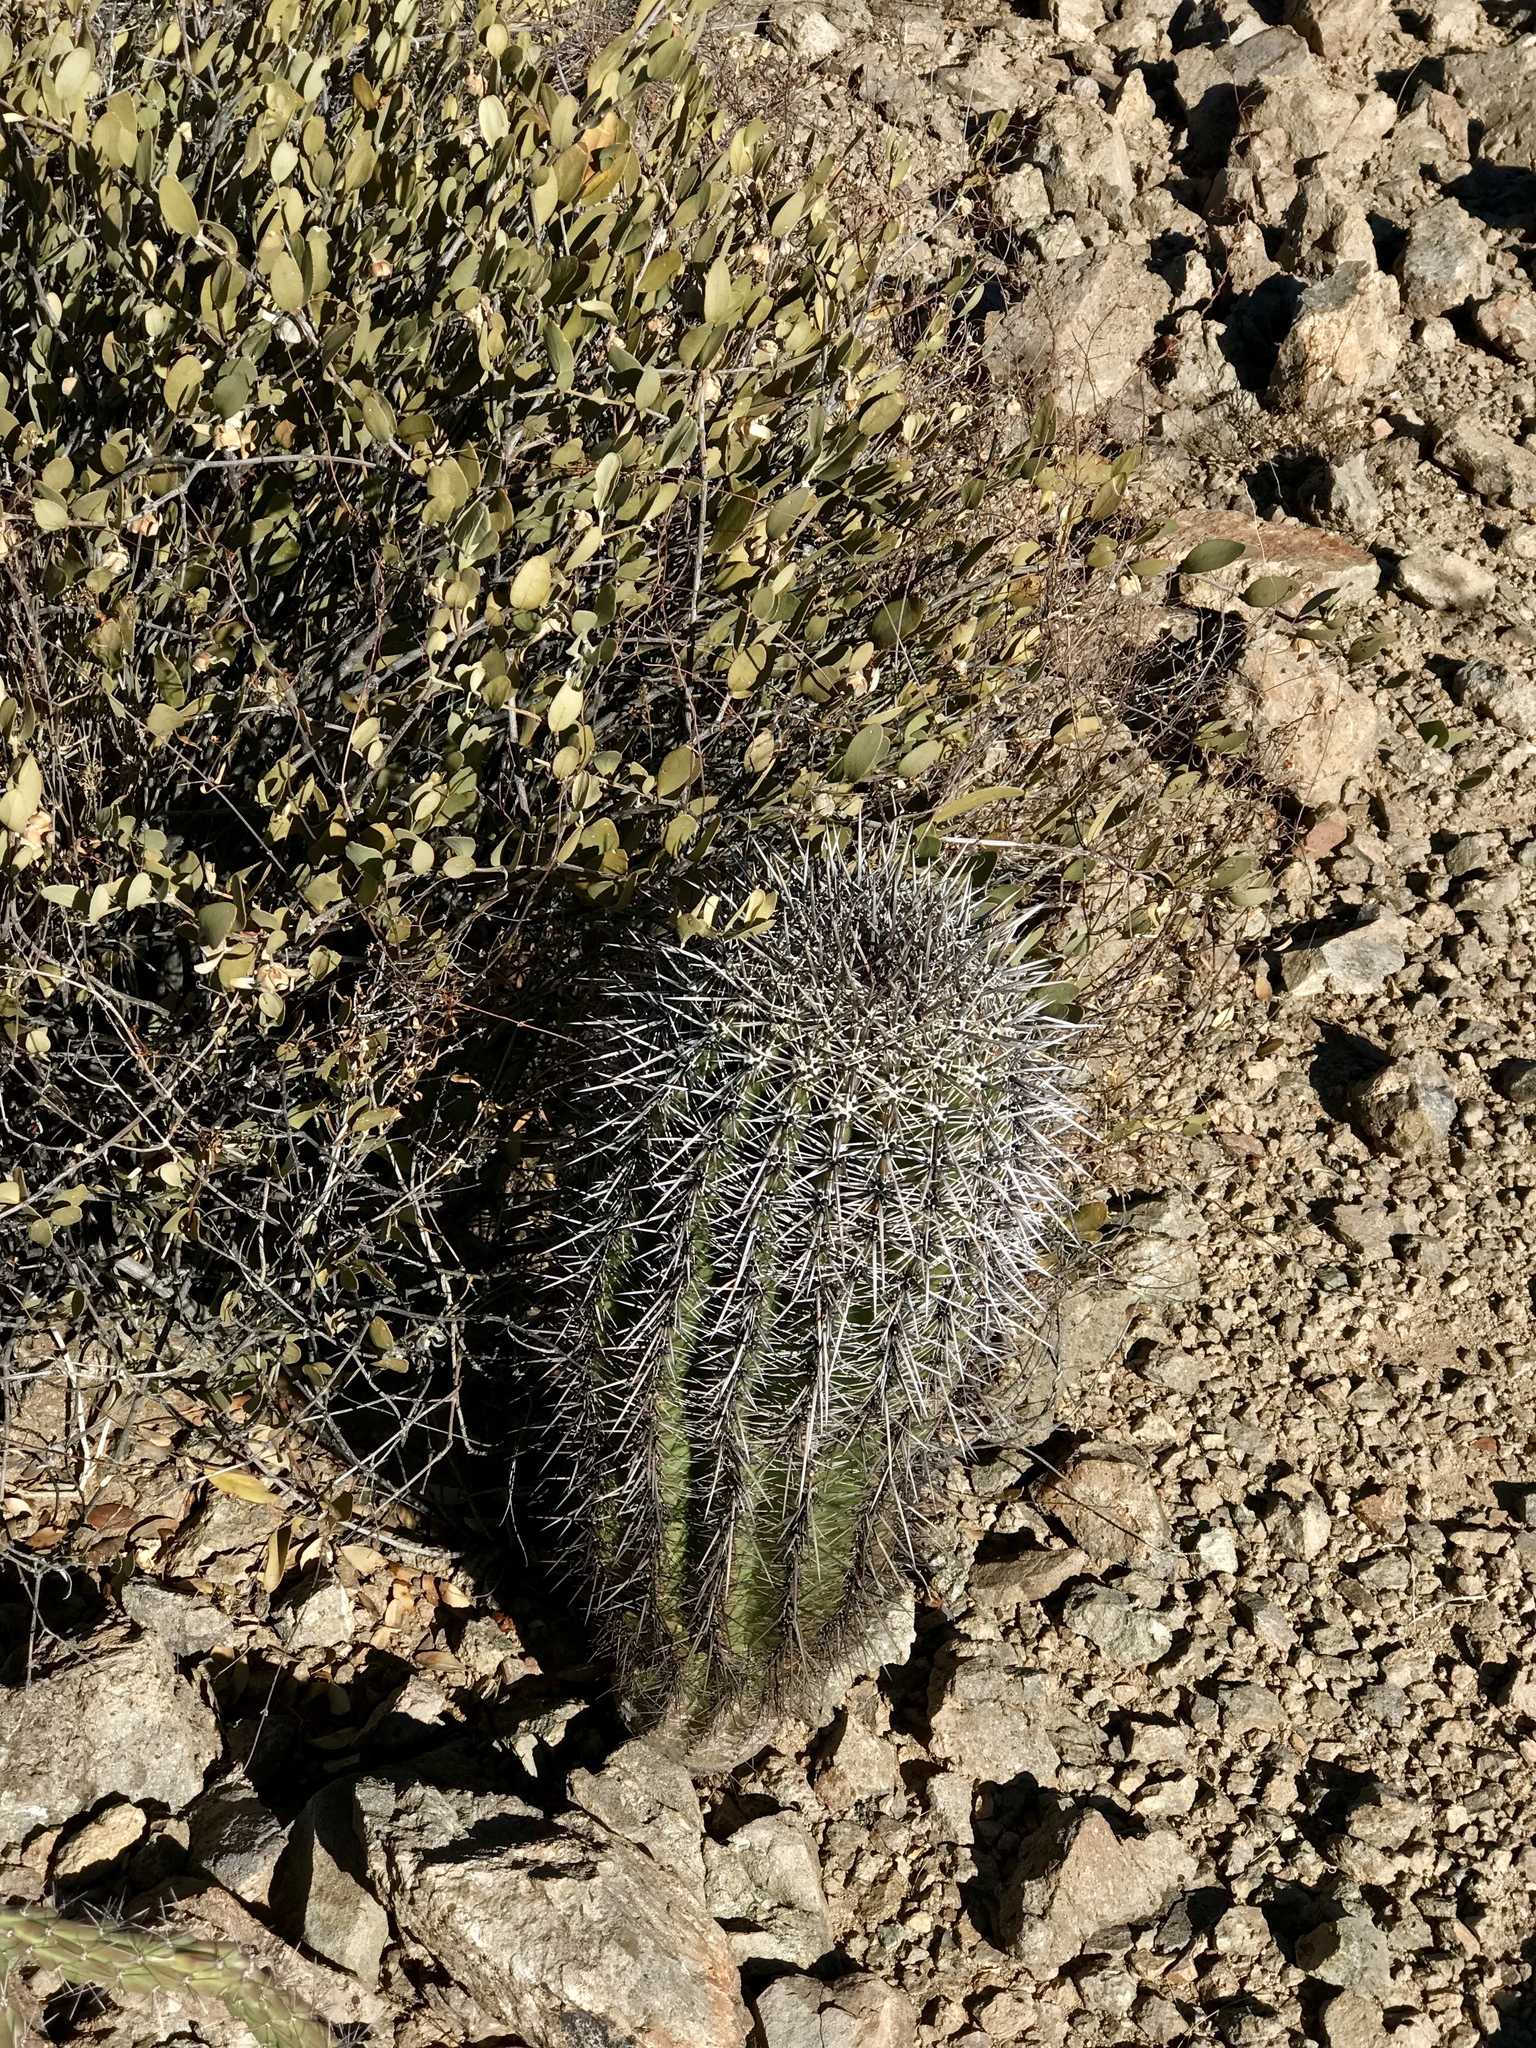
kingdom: Plantae
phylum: Tracheophyta
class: Magnoliopsida
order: Caryophyllales
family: Cactaceae
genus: Carnegiea
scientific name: Carnegiea gigantea
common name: Saguaro
